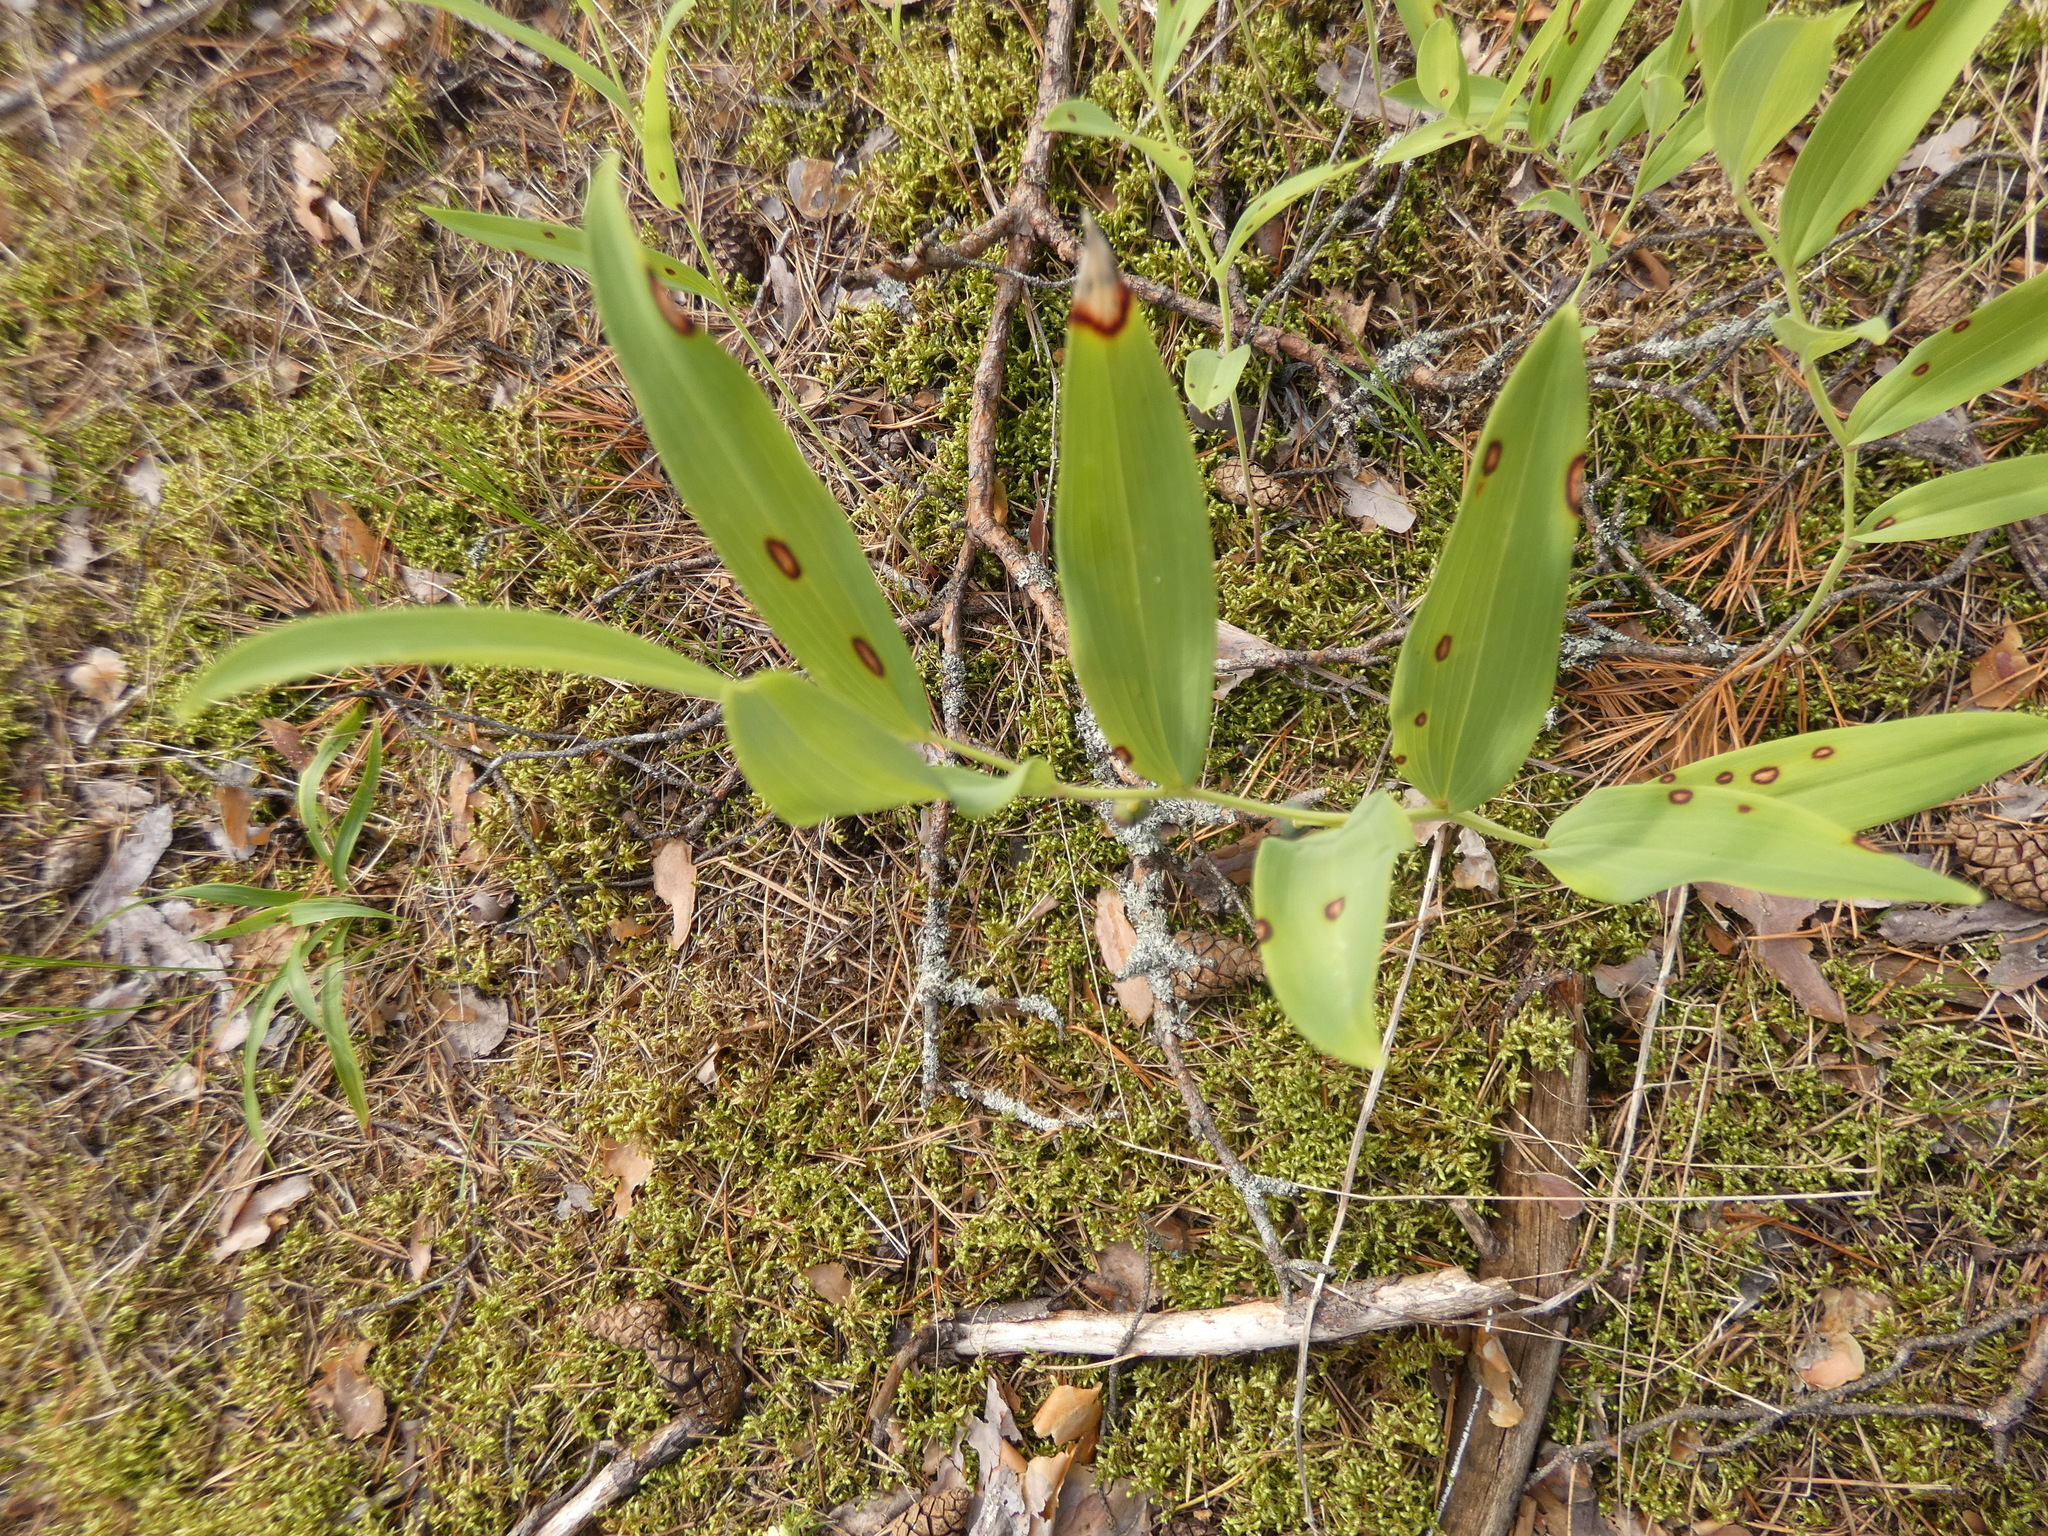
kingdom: Plantae
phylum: Tracheophyta
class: Liliopsida
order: Asparagales
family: Asparagaceae
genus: Polygonatum
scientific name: Polygonatum odoratum
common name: Angular solomon's-seal
